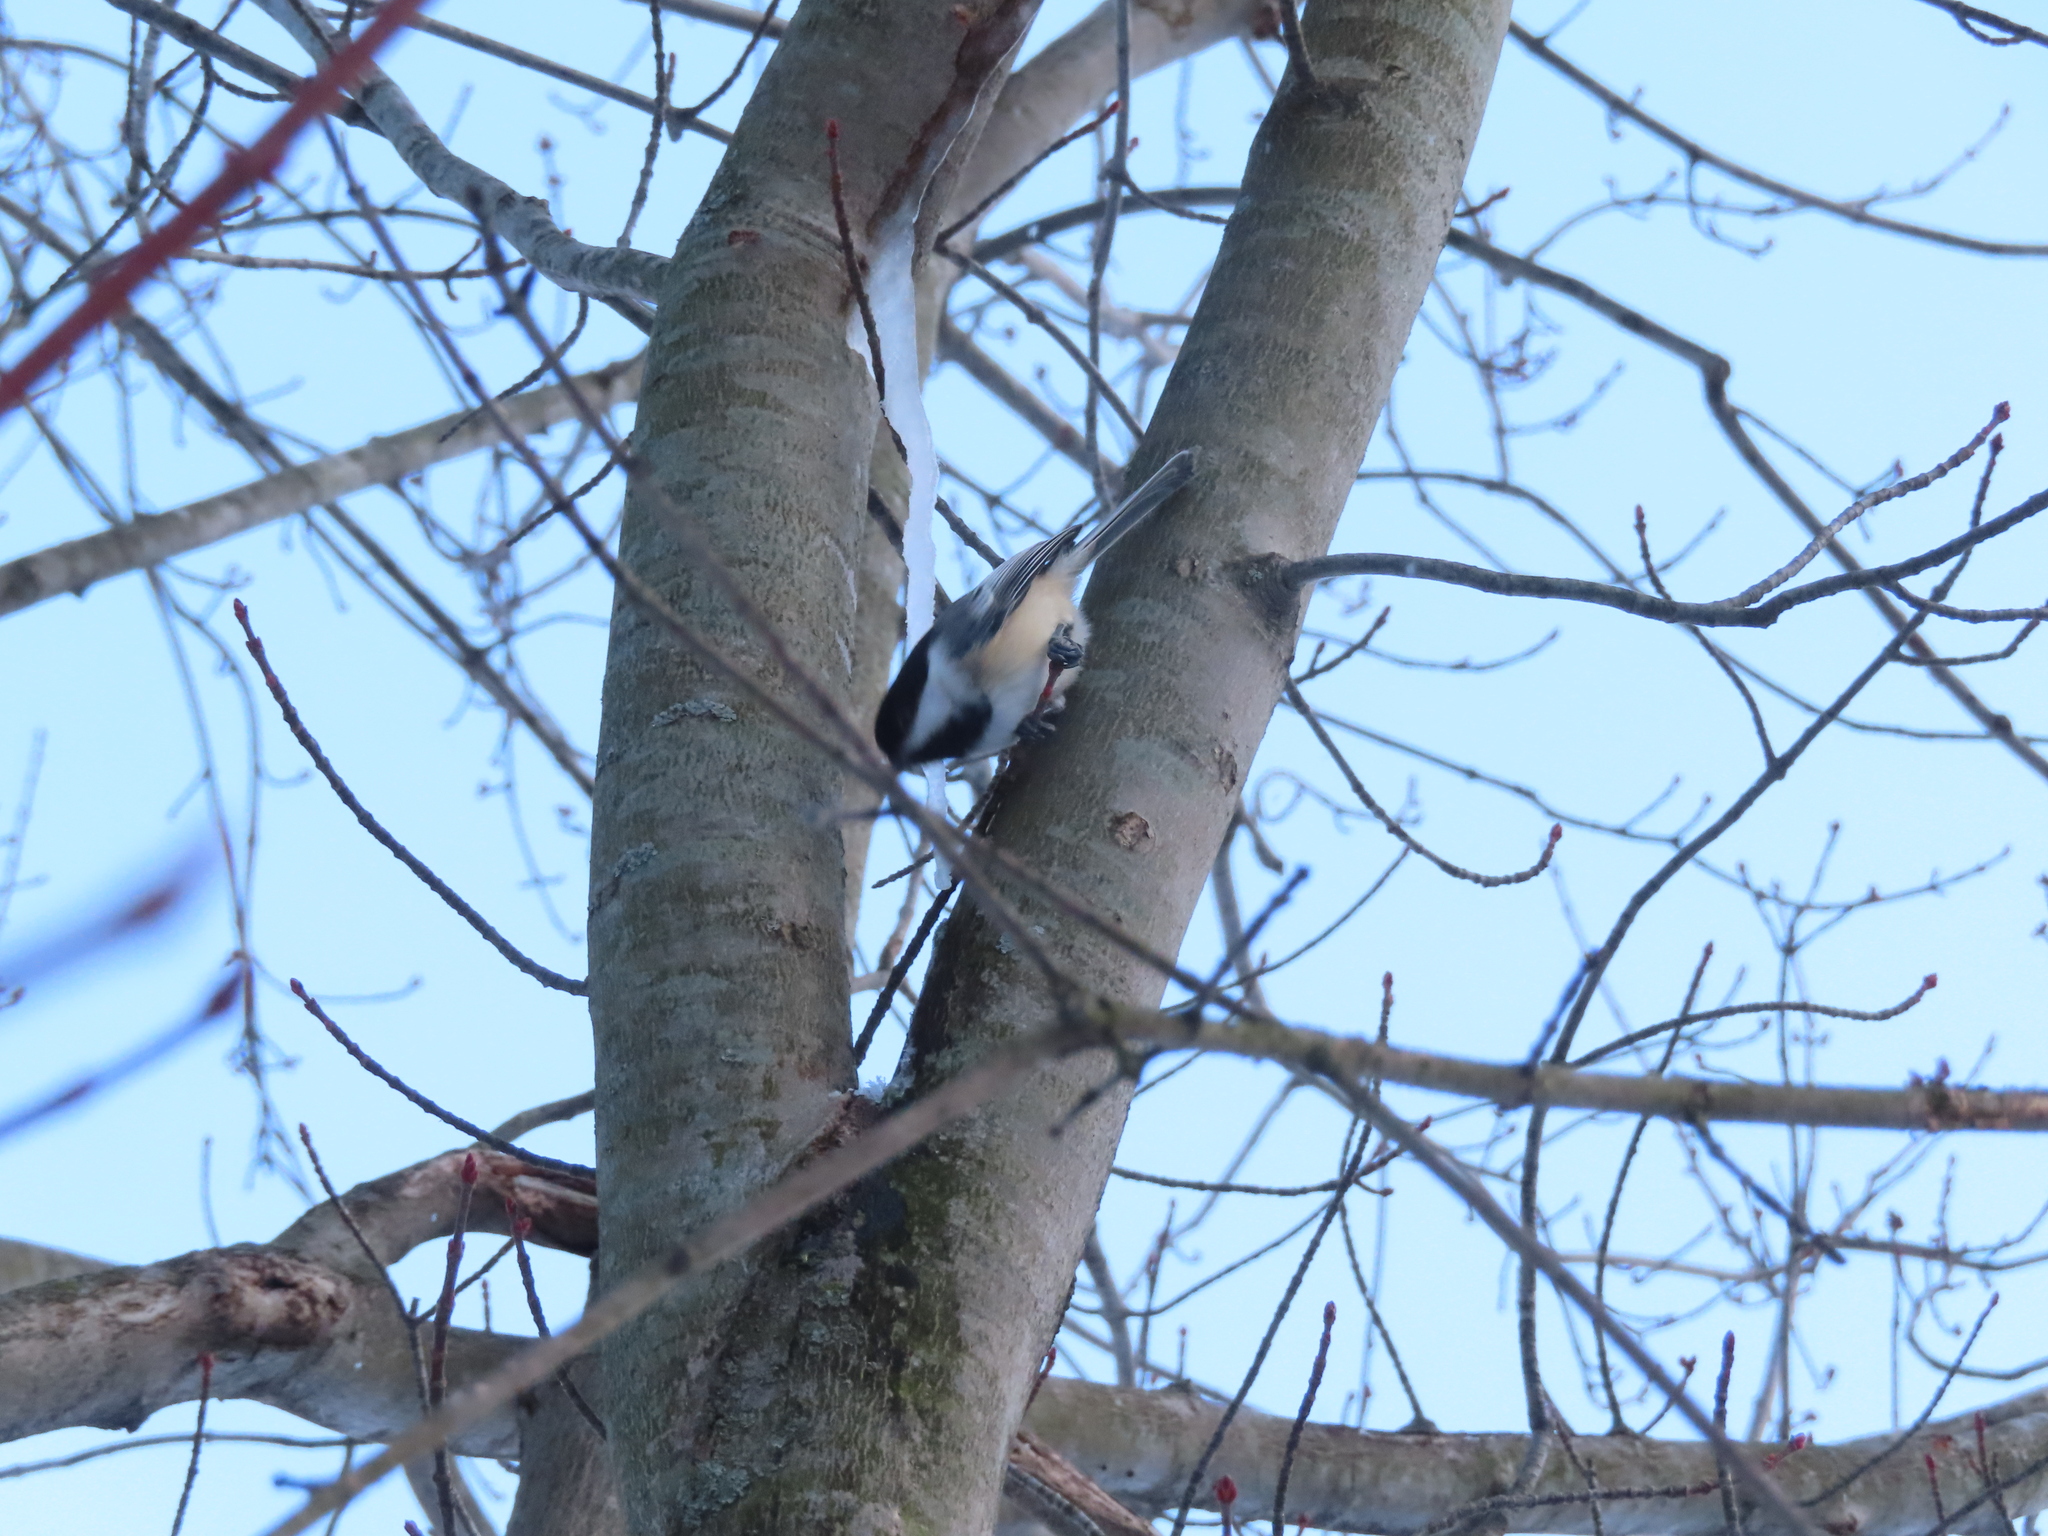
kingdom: Animalia
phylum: Chordata
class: Aves
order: Passeriformes
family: Paridae
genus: Poecile
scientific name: Poecile atricapillus
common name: Black-capped chickadee
